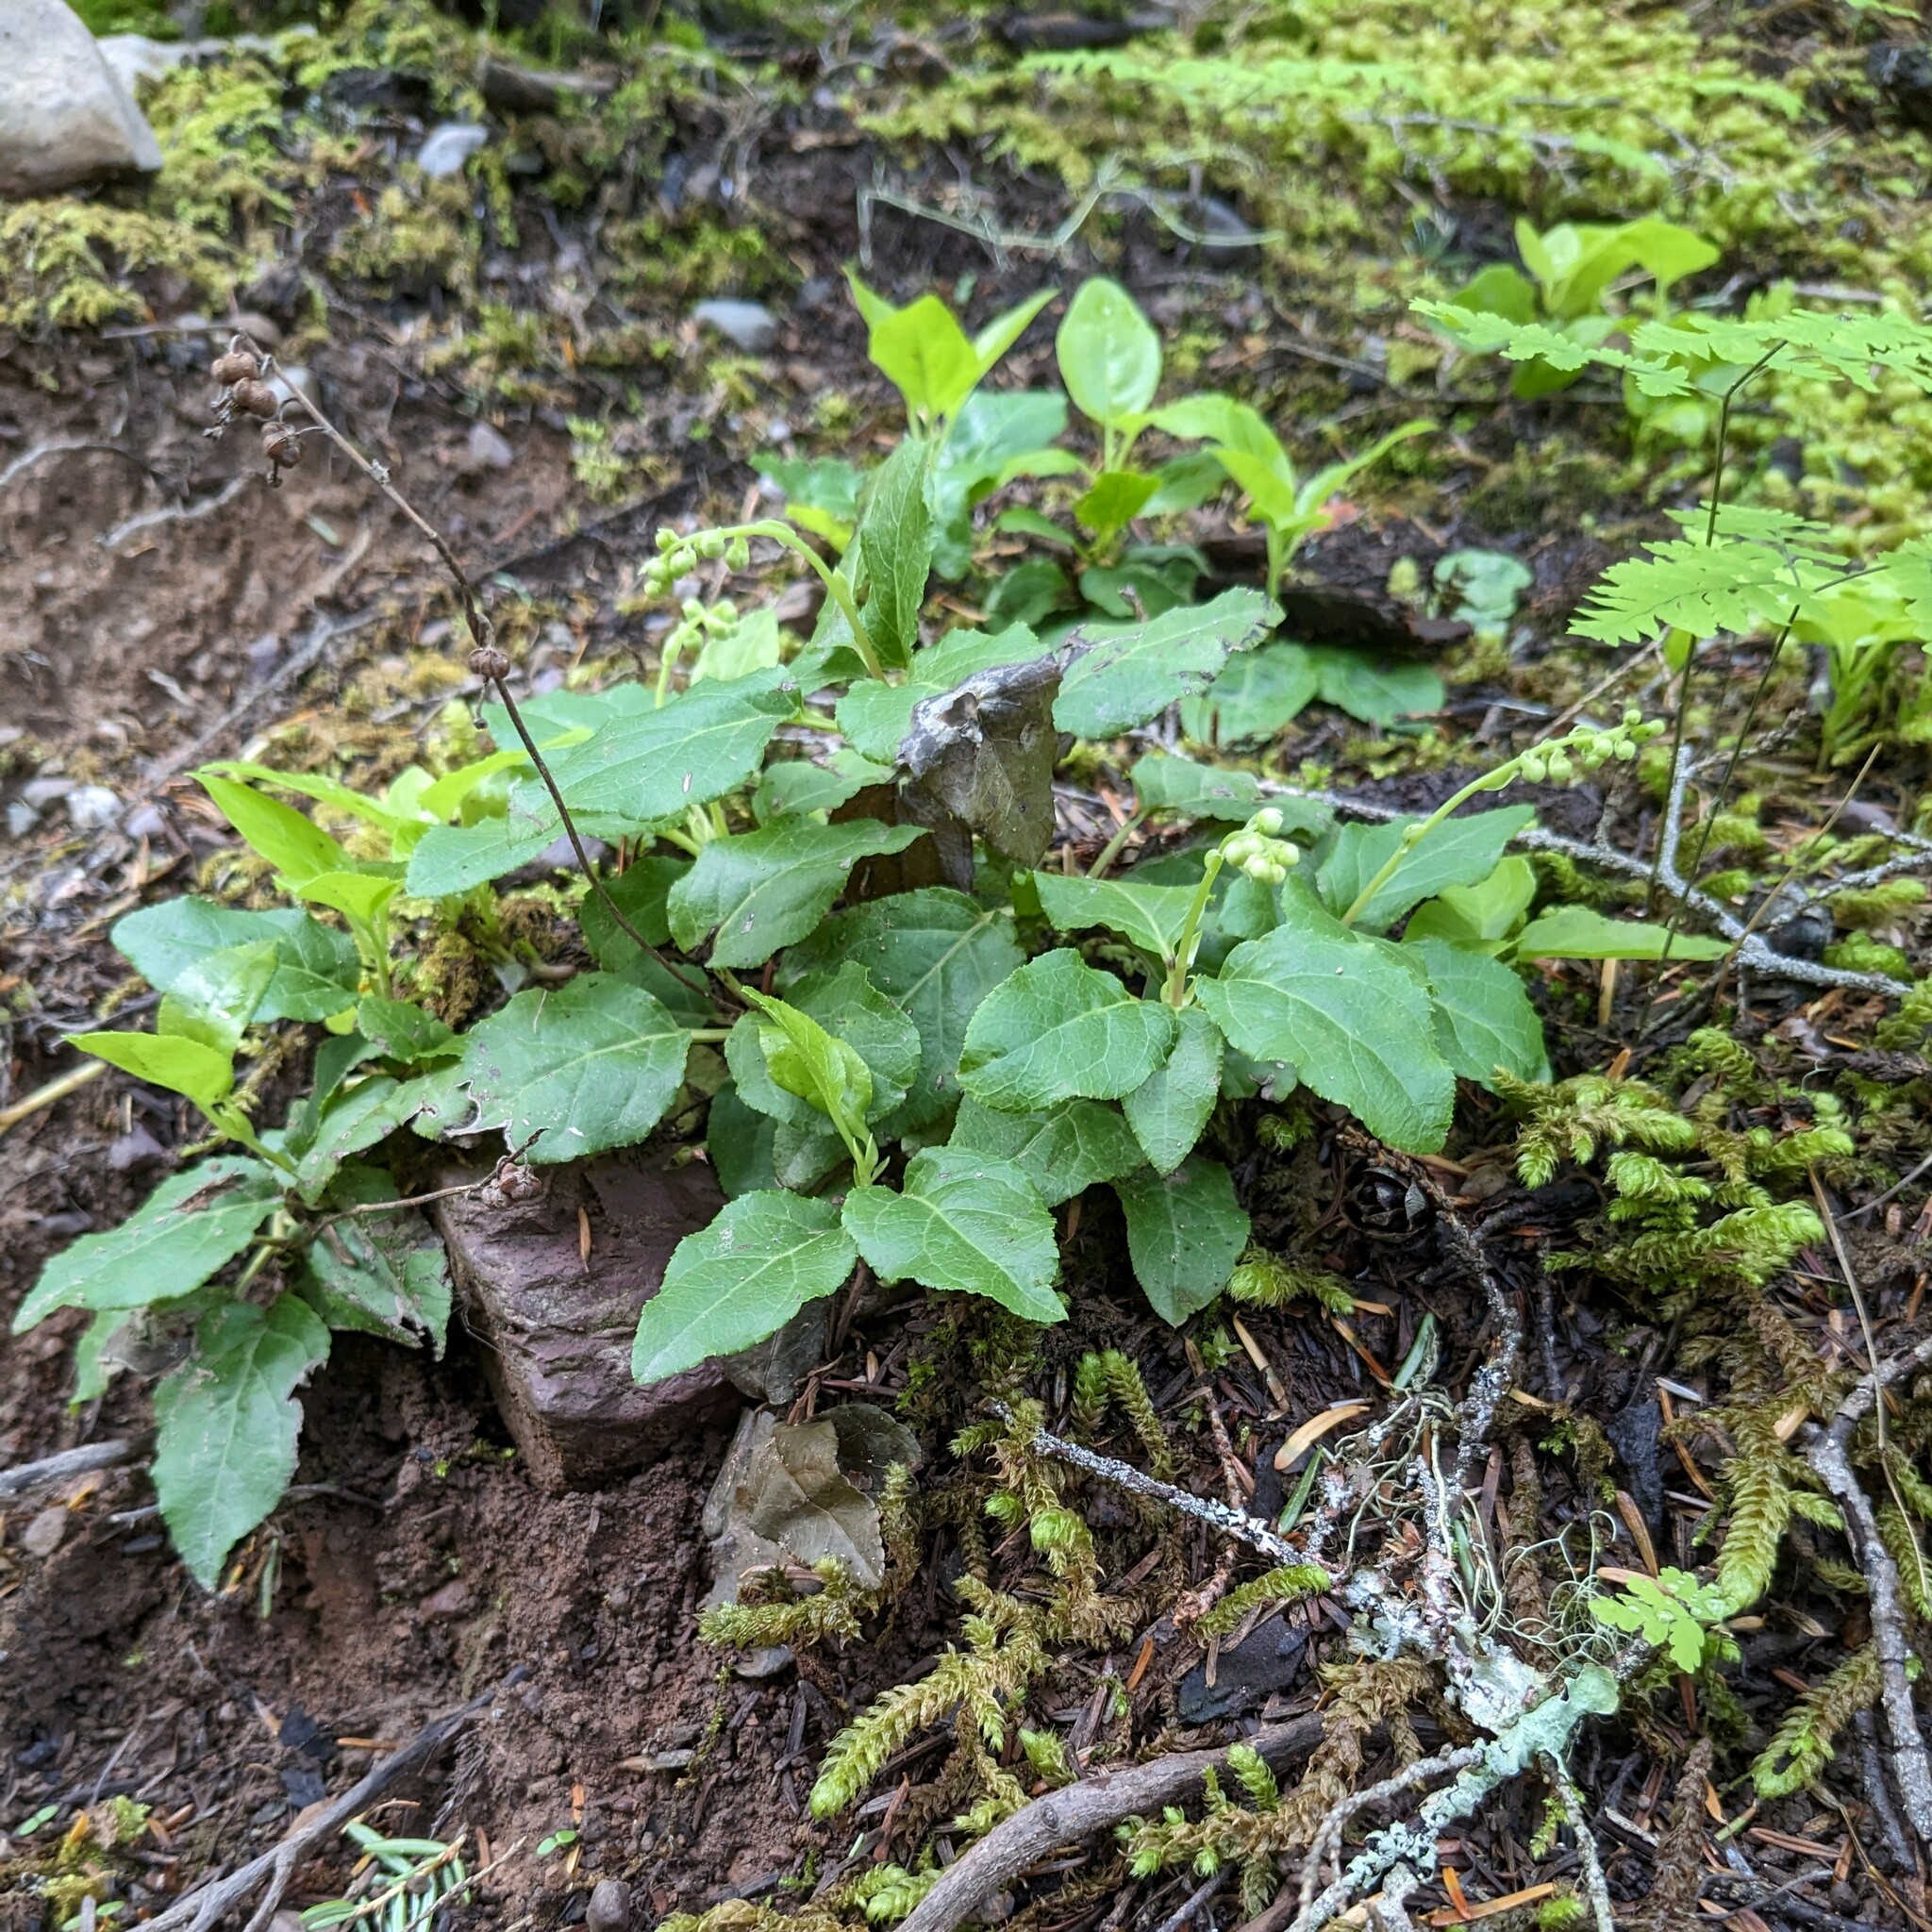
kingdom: Plantae
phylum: Tracheophyta
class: Magnoliopsida
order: Ericales
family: Ericaceae
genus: Orthilia
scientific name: Orthilia secunda
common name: One-sided orthilia
